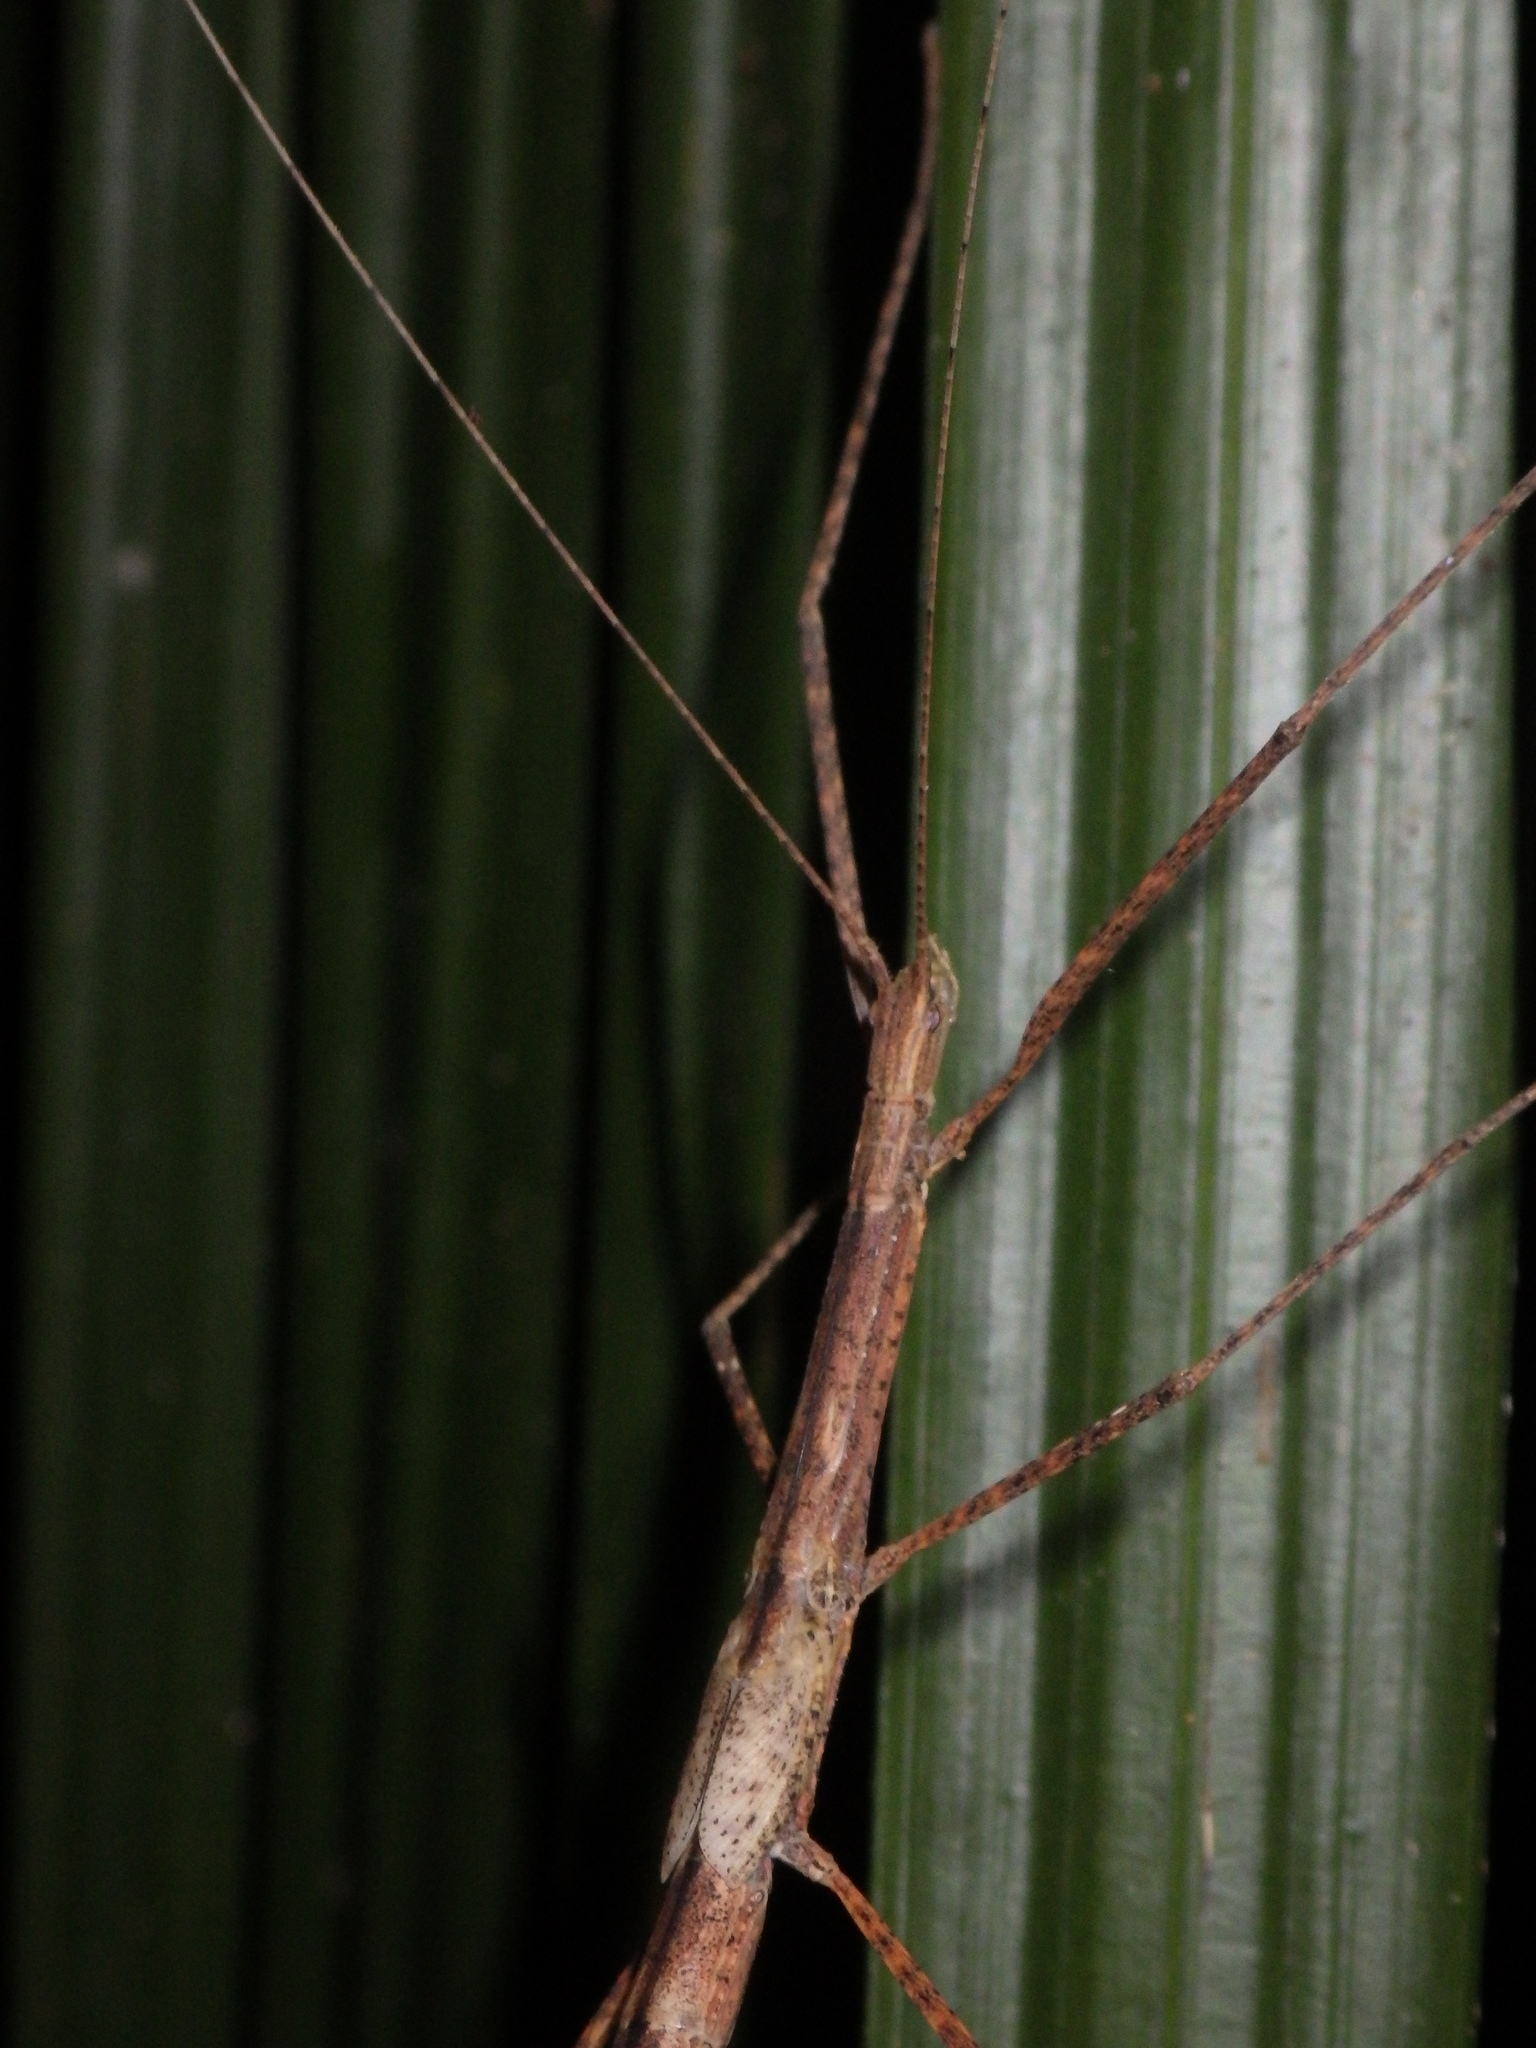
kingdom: Animalia
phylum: Arthropoda
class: Insecta
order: Phasmida
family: Lonchodidae
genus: Sipyloidea
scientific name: Sipyloidea larryi
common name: Hurricane larry stick-insect
